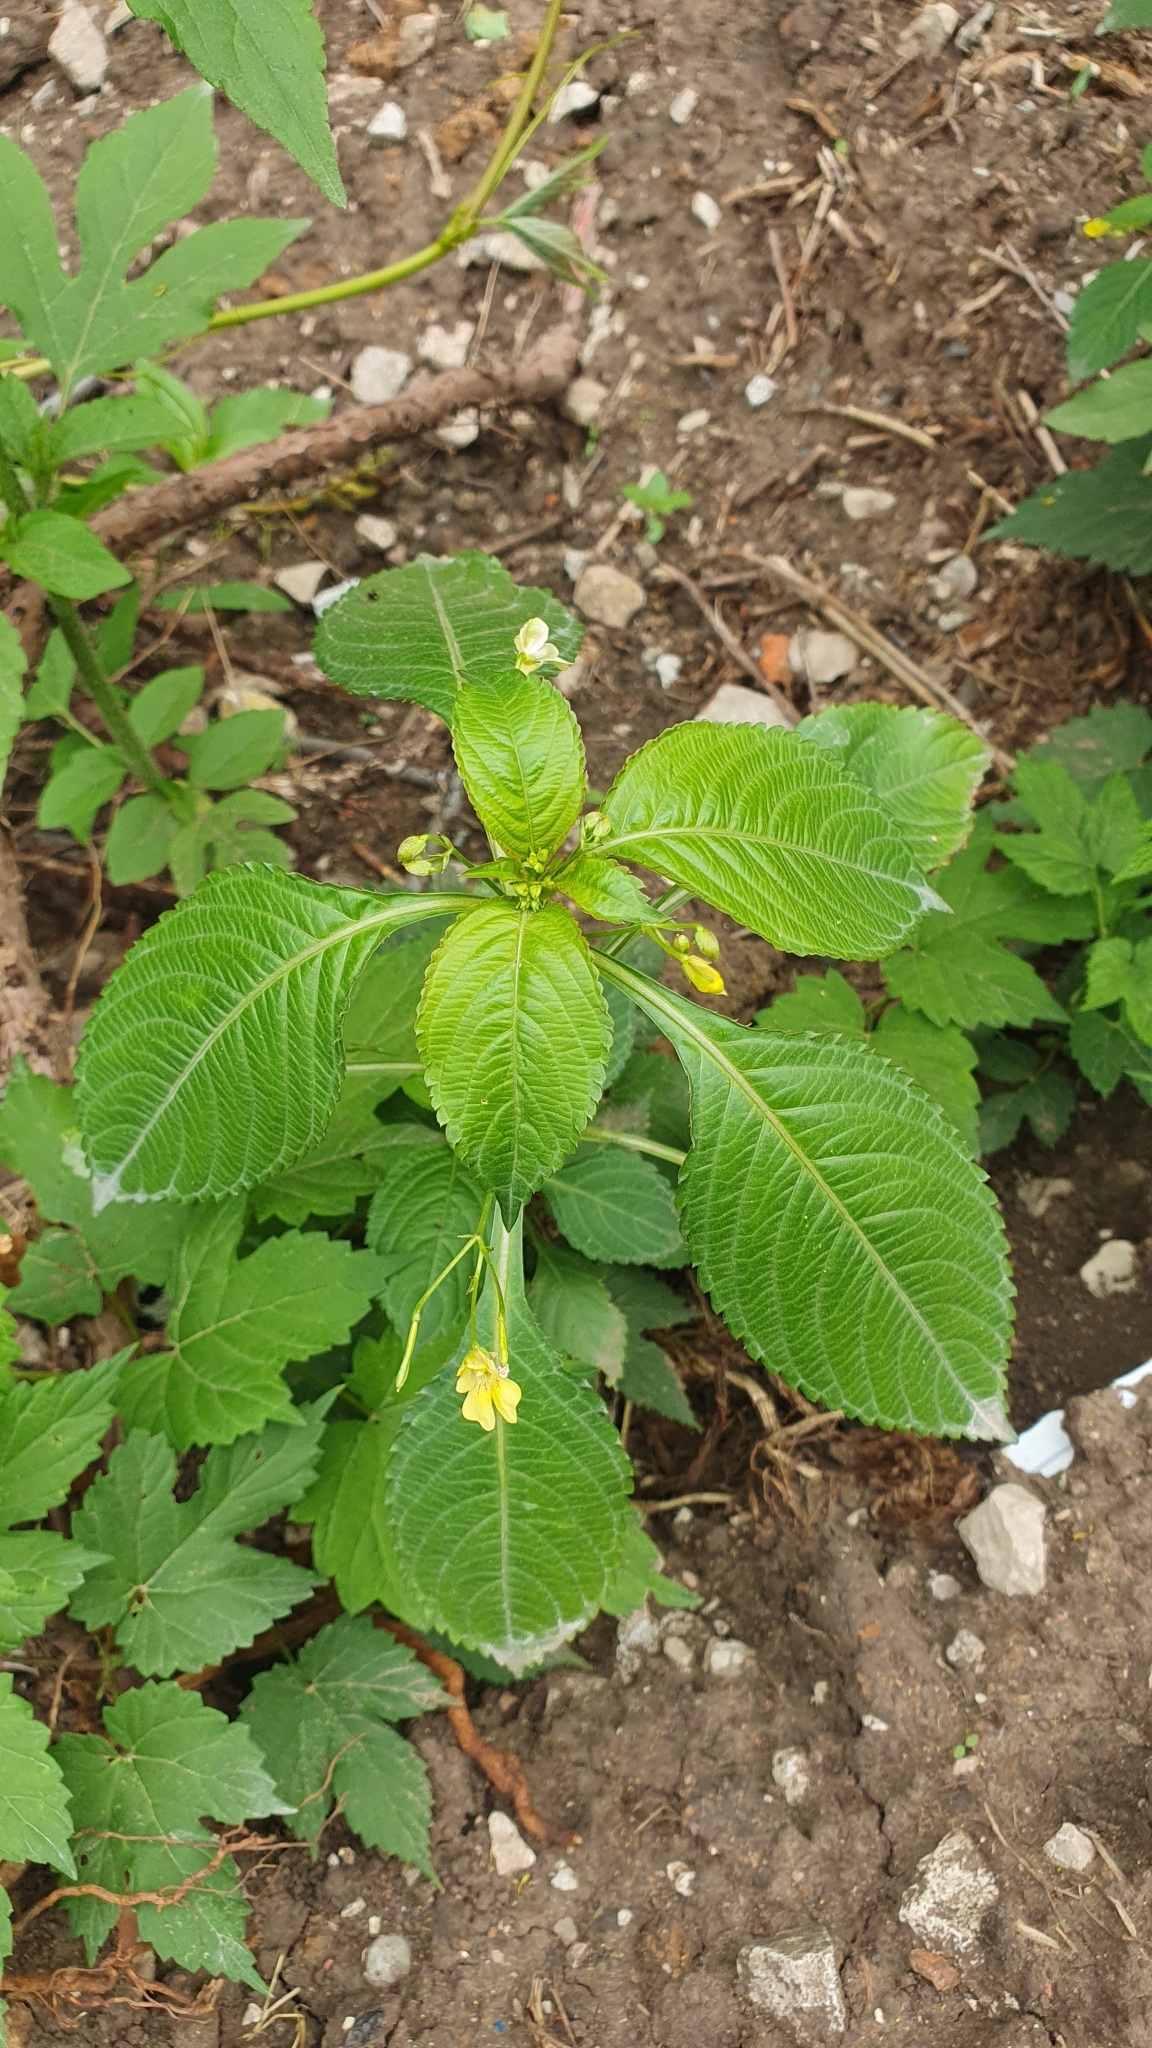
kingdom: Plantae
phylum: Tracheophyta
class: Magnoliopsida
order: Ericales
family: Balsaminaceae
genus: Impatiens
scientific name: Impatiens parviflora
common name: Small balsam
